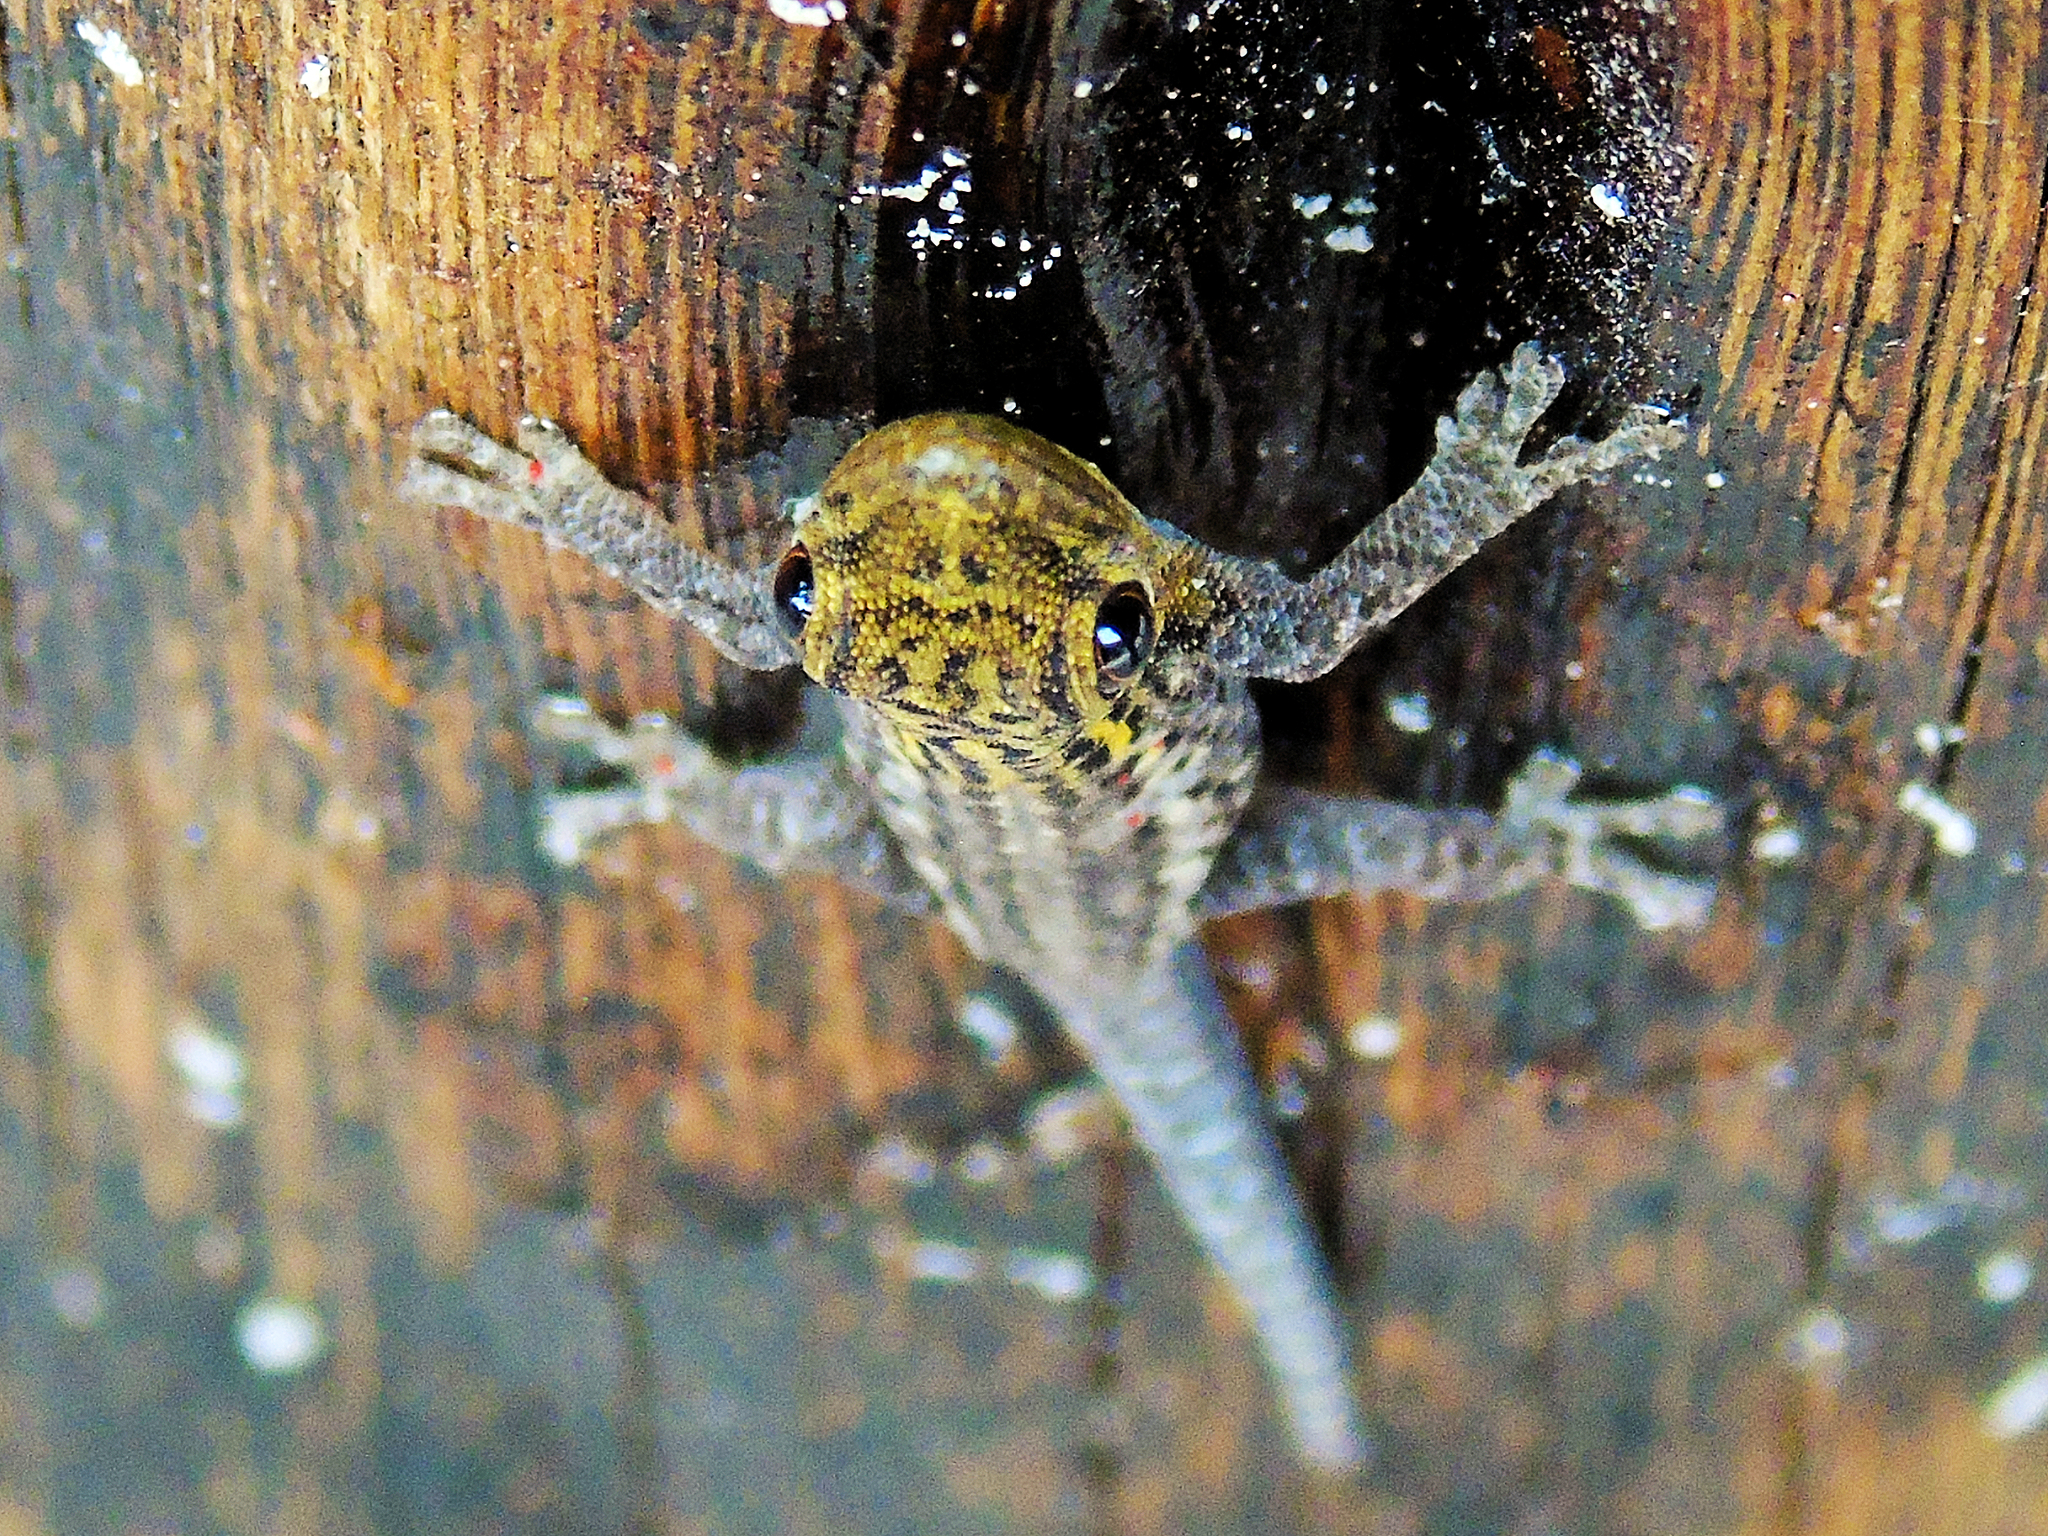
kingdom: Animalia
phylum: Chordata
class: Squamata
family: Gekkonidae
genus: Lygodactylus
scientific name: Lygodactylus picturatus
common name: Painted dwarf gecko
